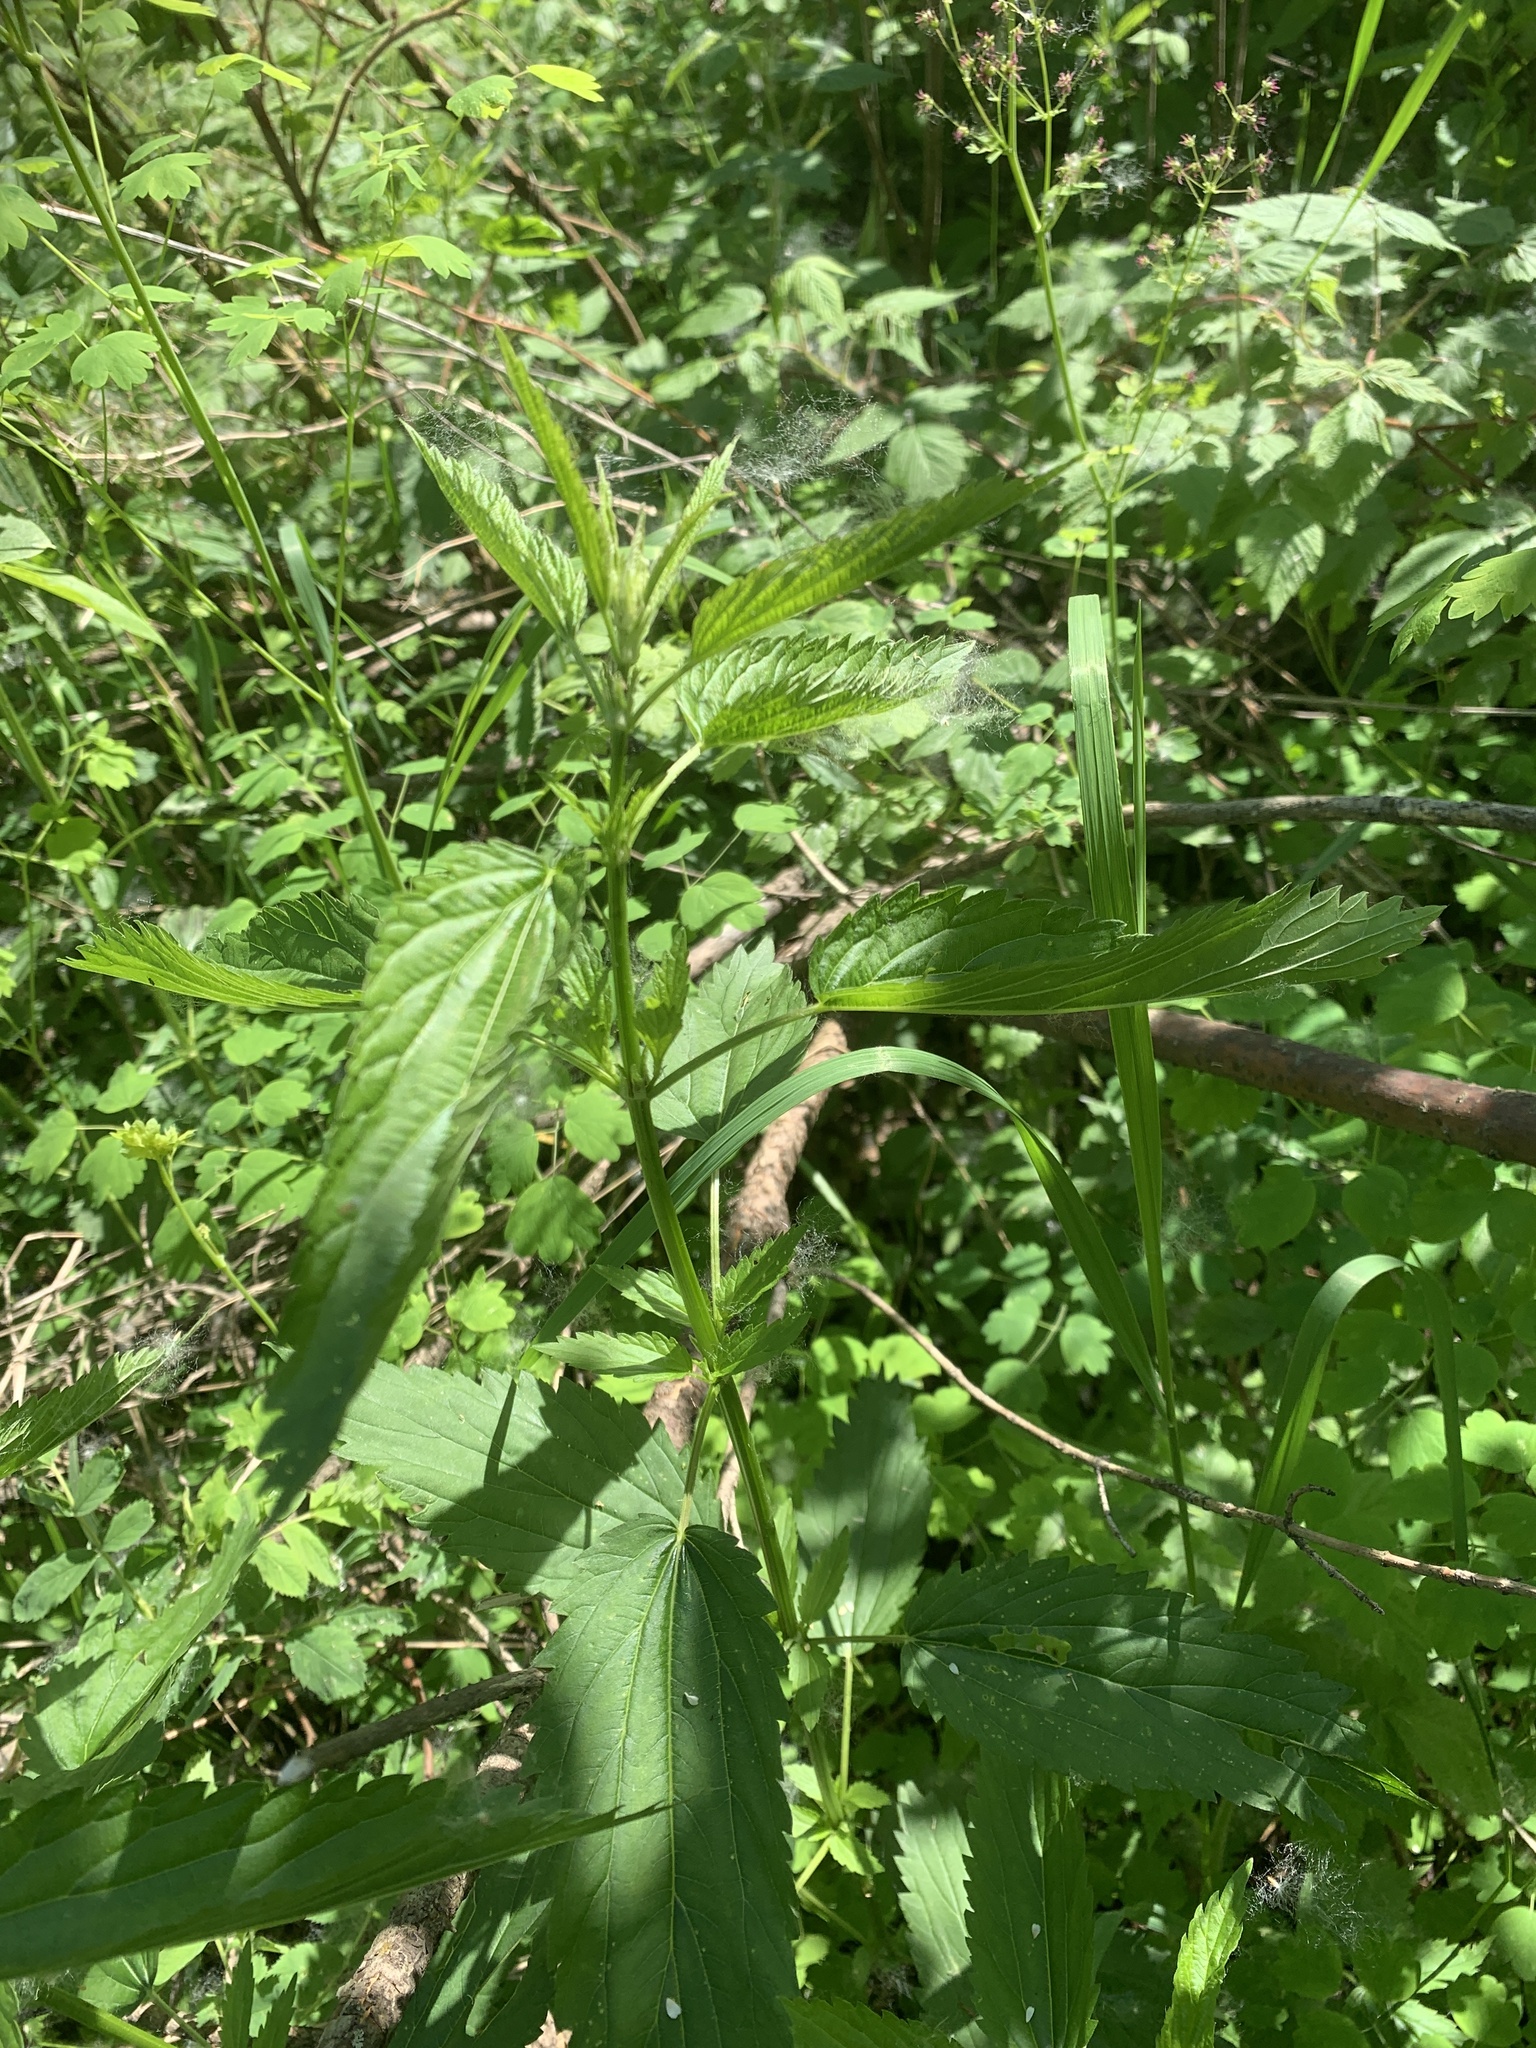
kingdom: Plantae
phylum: Tracheophyta
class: Magnoliopsida
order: Rosales
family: Urticaceae
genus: Urtica
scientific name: Urtica gracilis
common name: Slender stinging nettle
